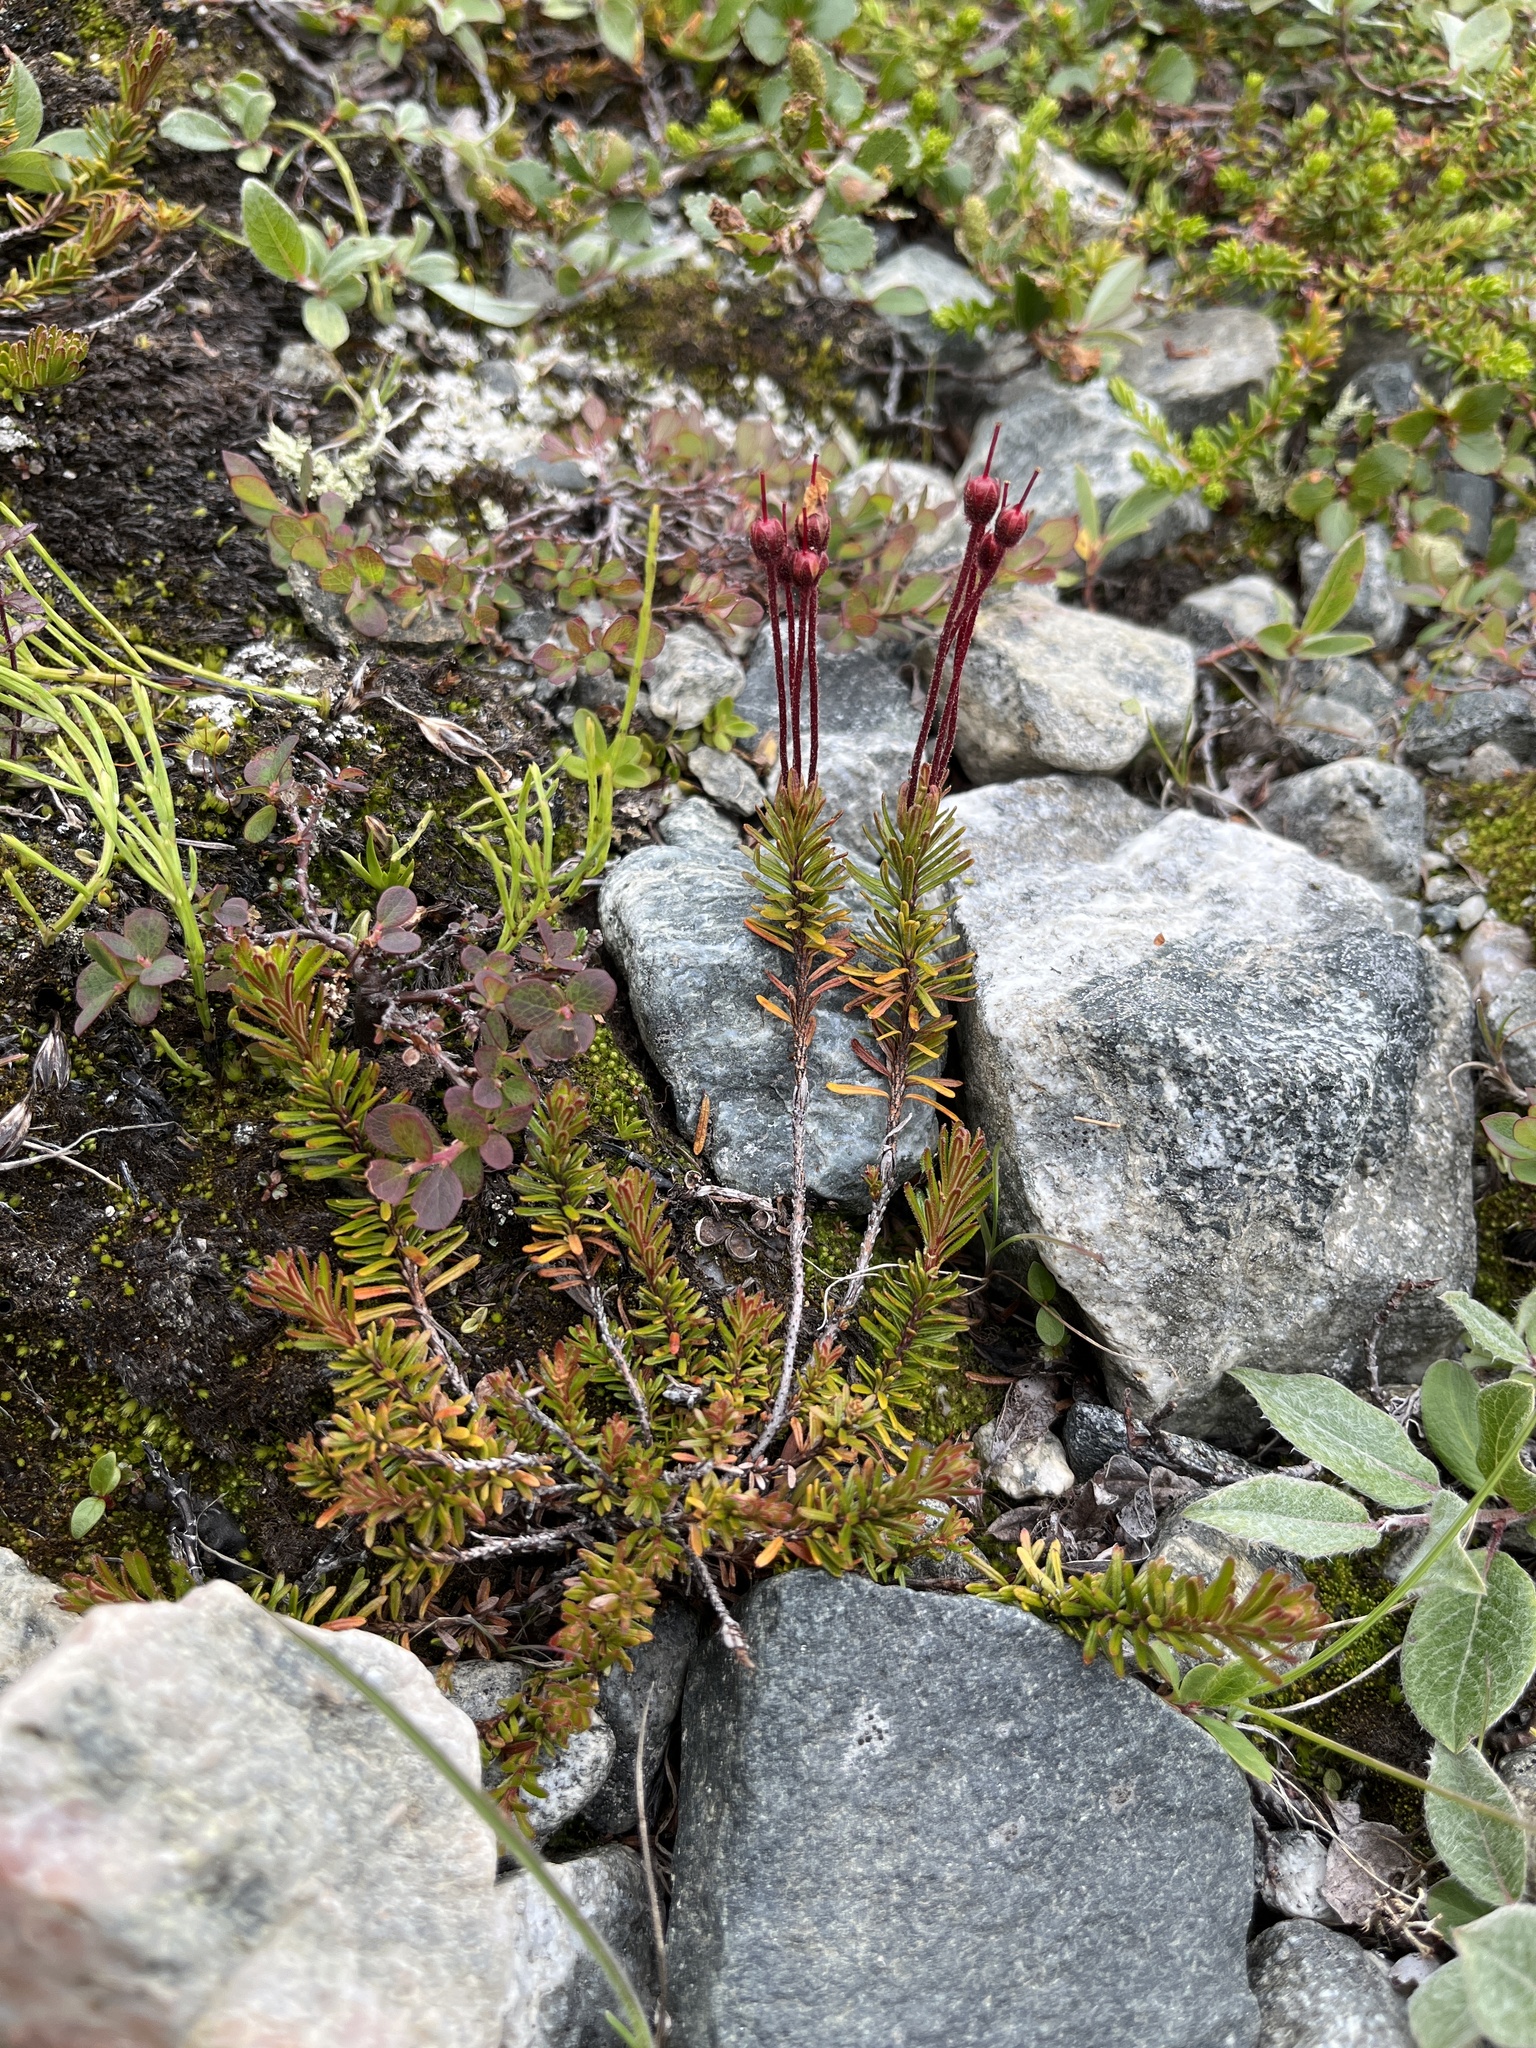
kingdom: Plantae
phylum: Tracheophyta
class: Magnoliopsida
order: Ericales
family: Ericaceae
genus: Phyllodoce
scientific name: Phyllodoce caerulea
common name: Blue heath
